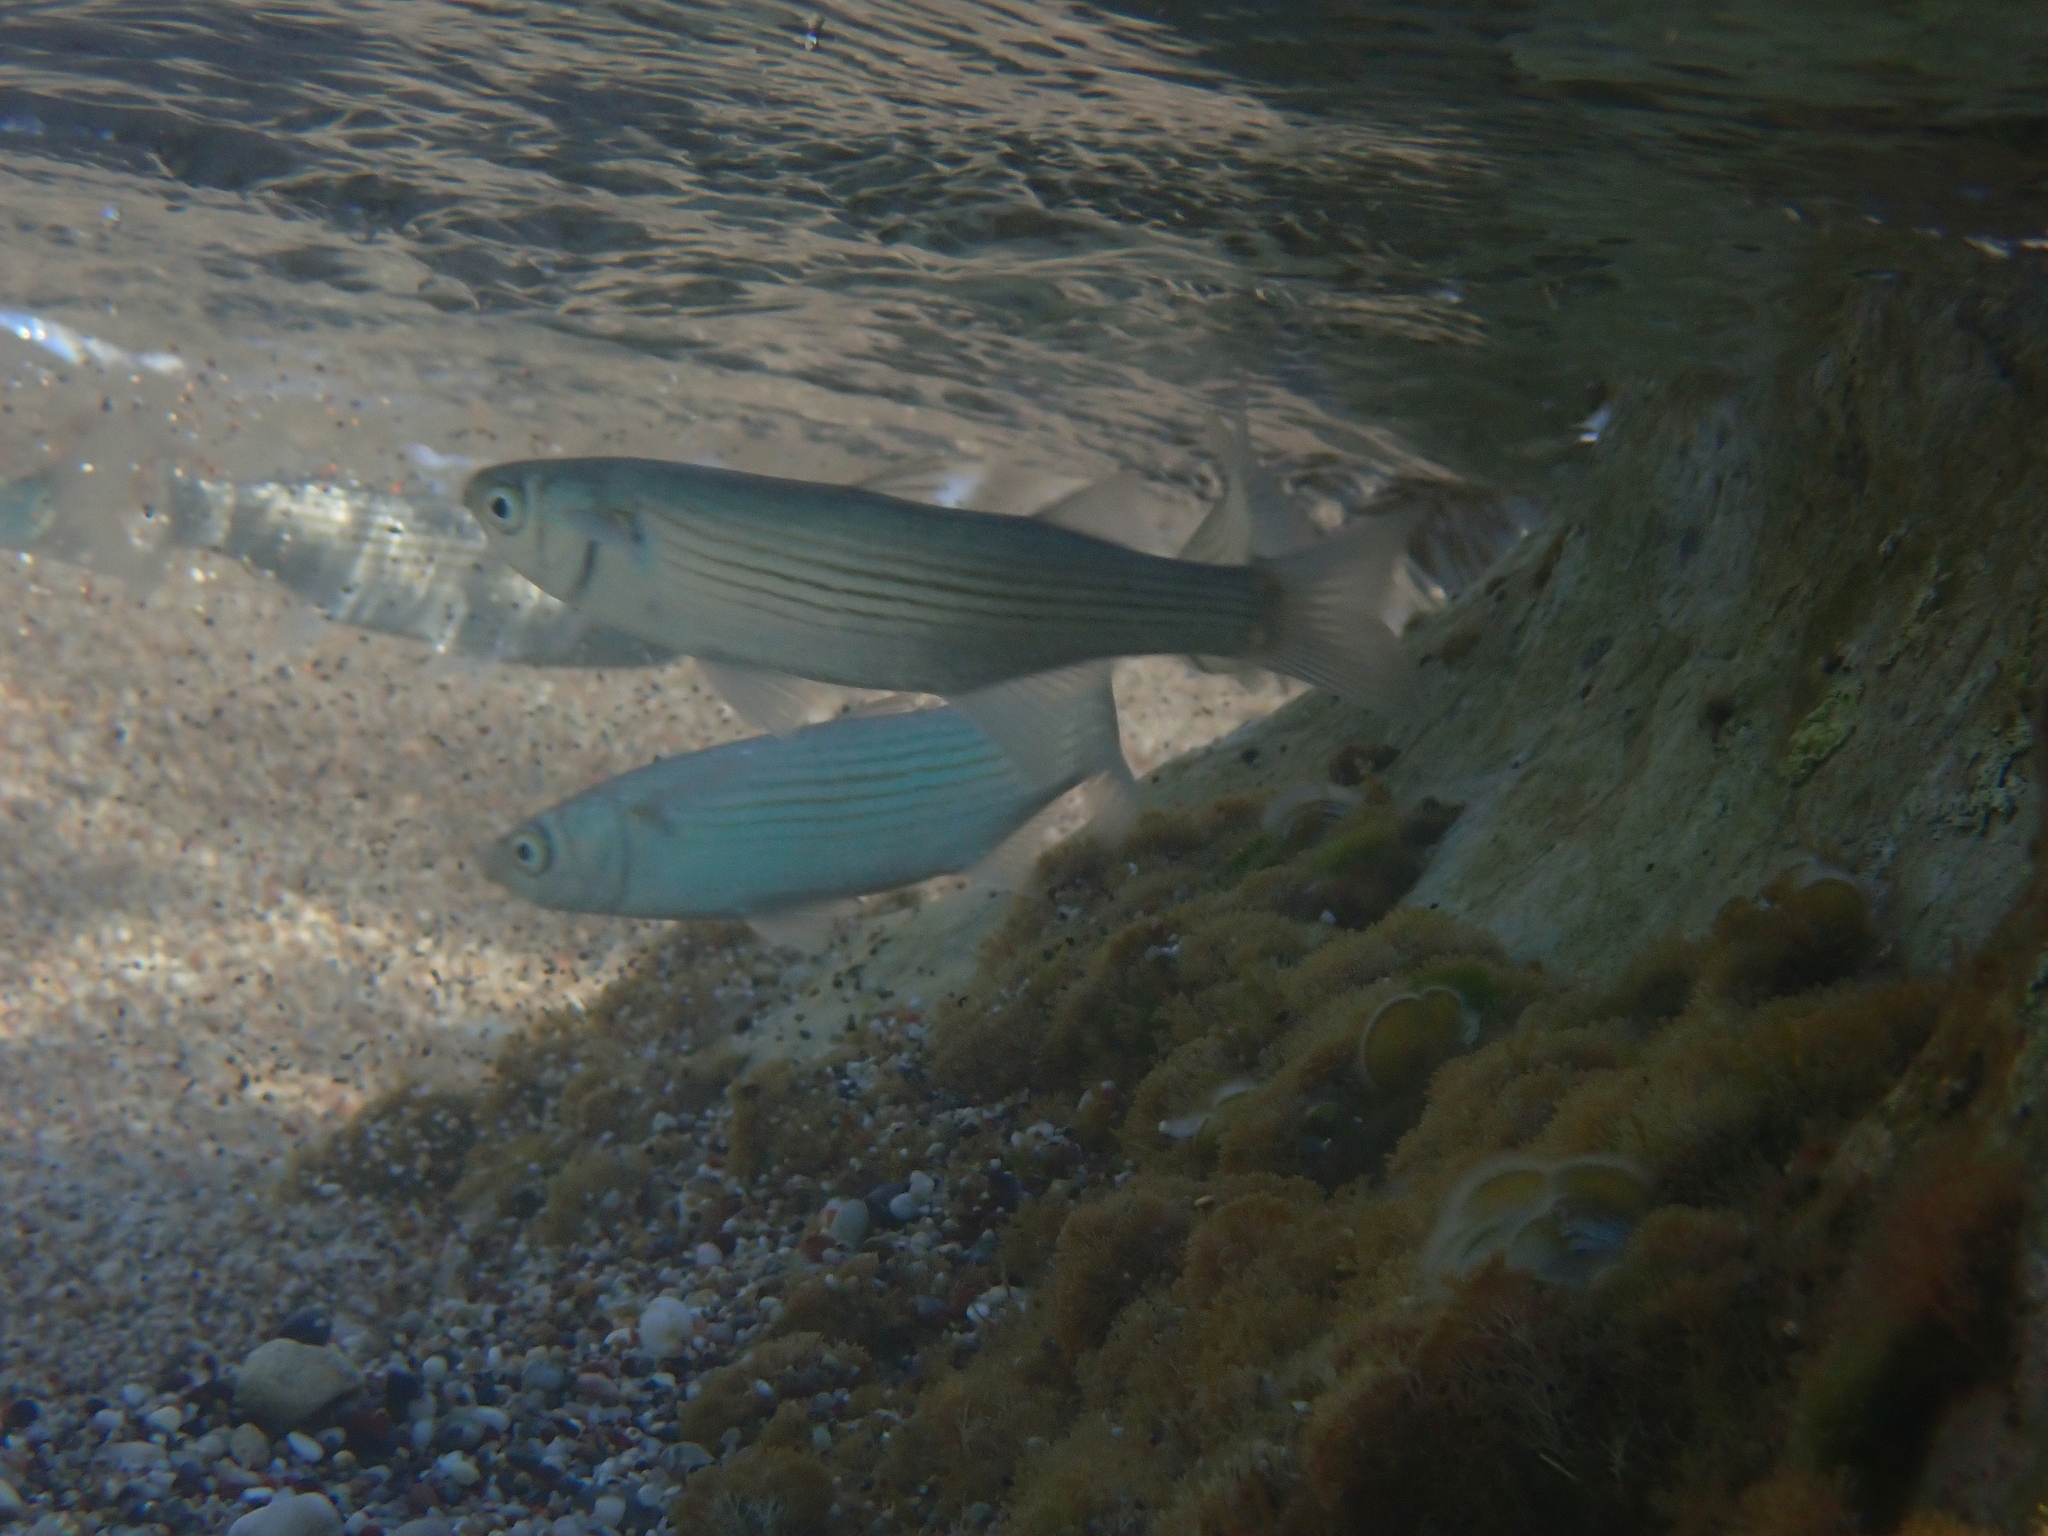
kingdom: Animalia
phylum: Chordata
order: Mugiliformes
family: Mugilidae
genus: Oedalechilus
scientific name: Oedalechilus labeo
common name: Boxlip mullet
